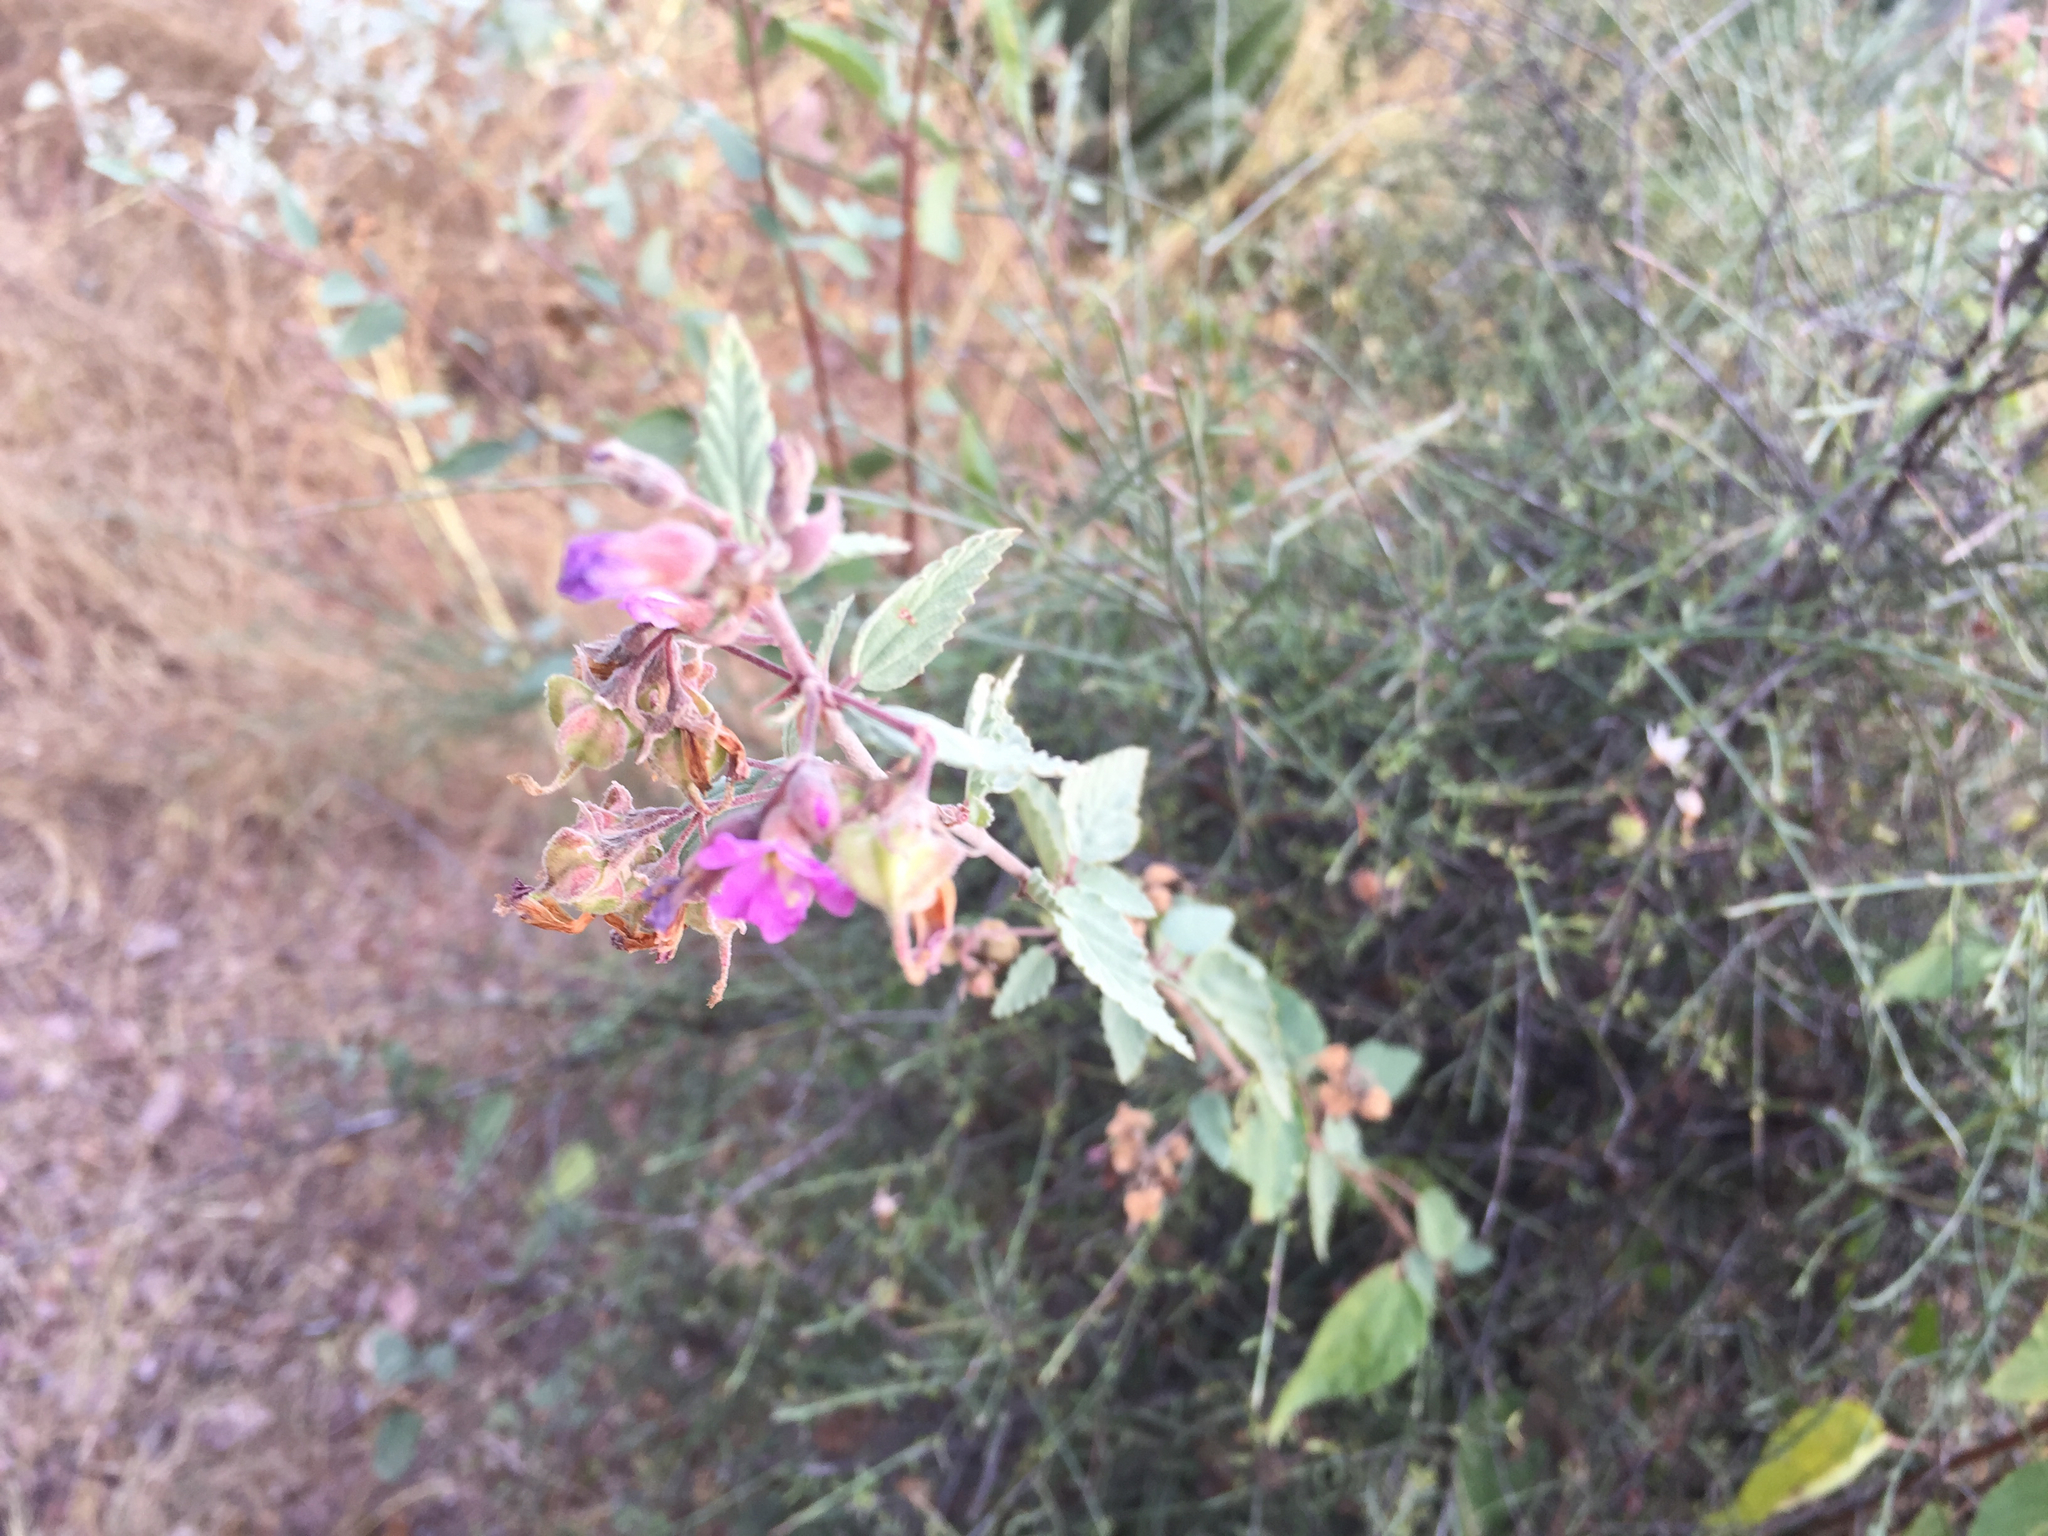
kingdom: Plantae
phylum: Tracheophyta
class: Magnoliopsida
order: Malvales
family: Malvaceae
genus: Melochia
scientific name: Melochia tomentosa
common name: Black torch
